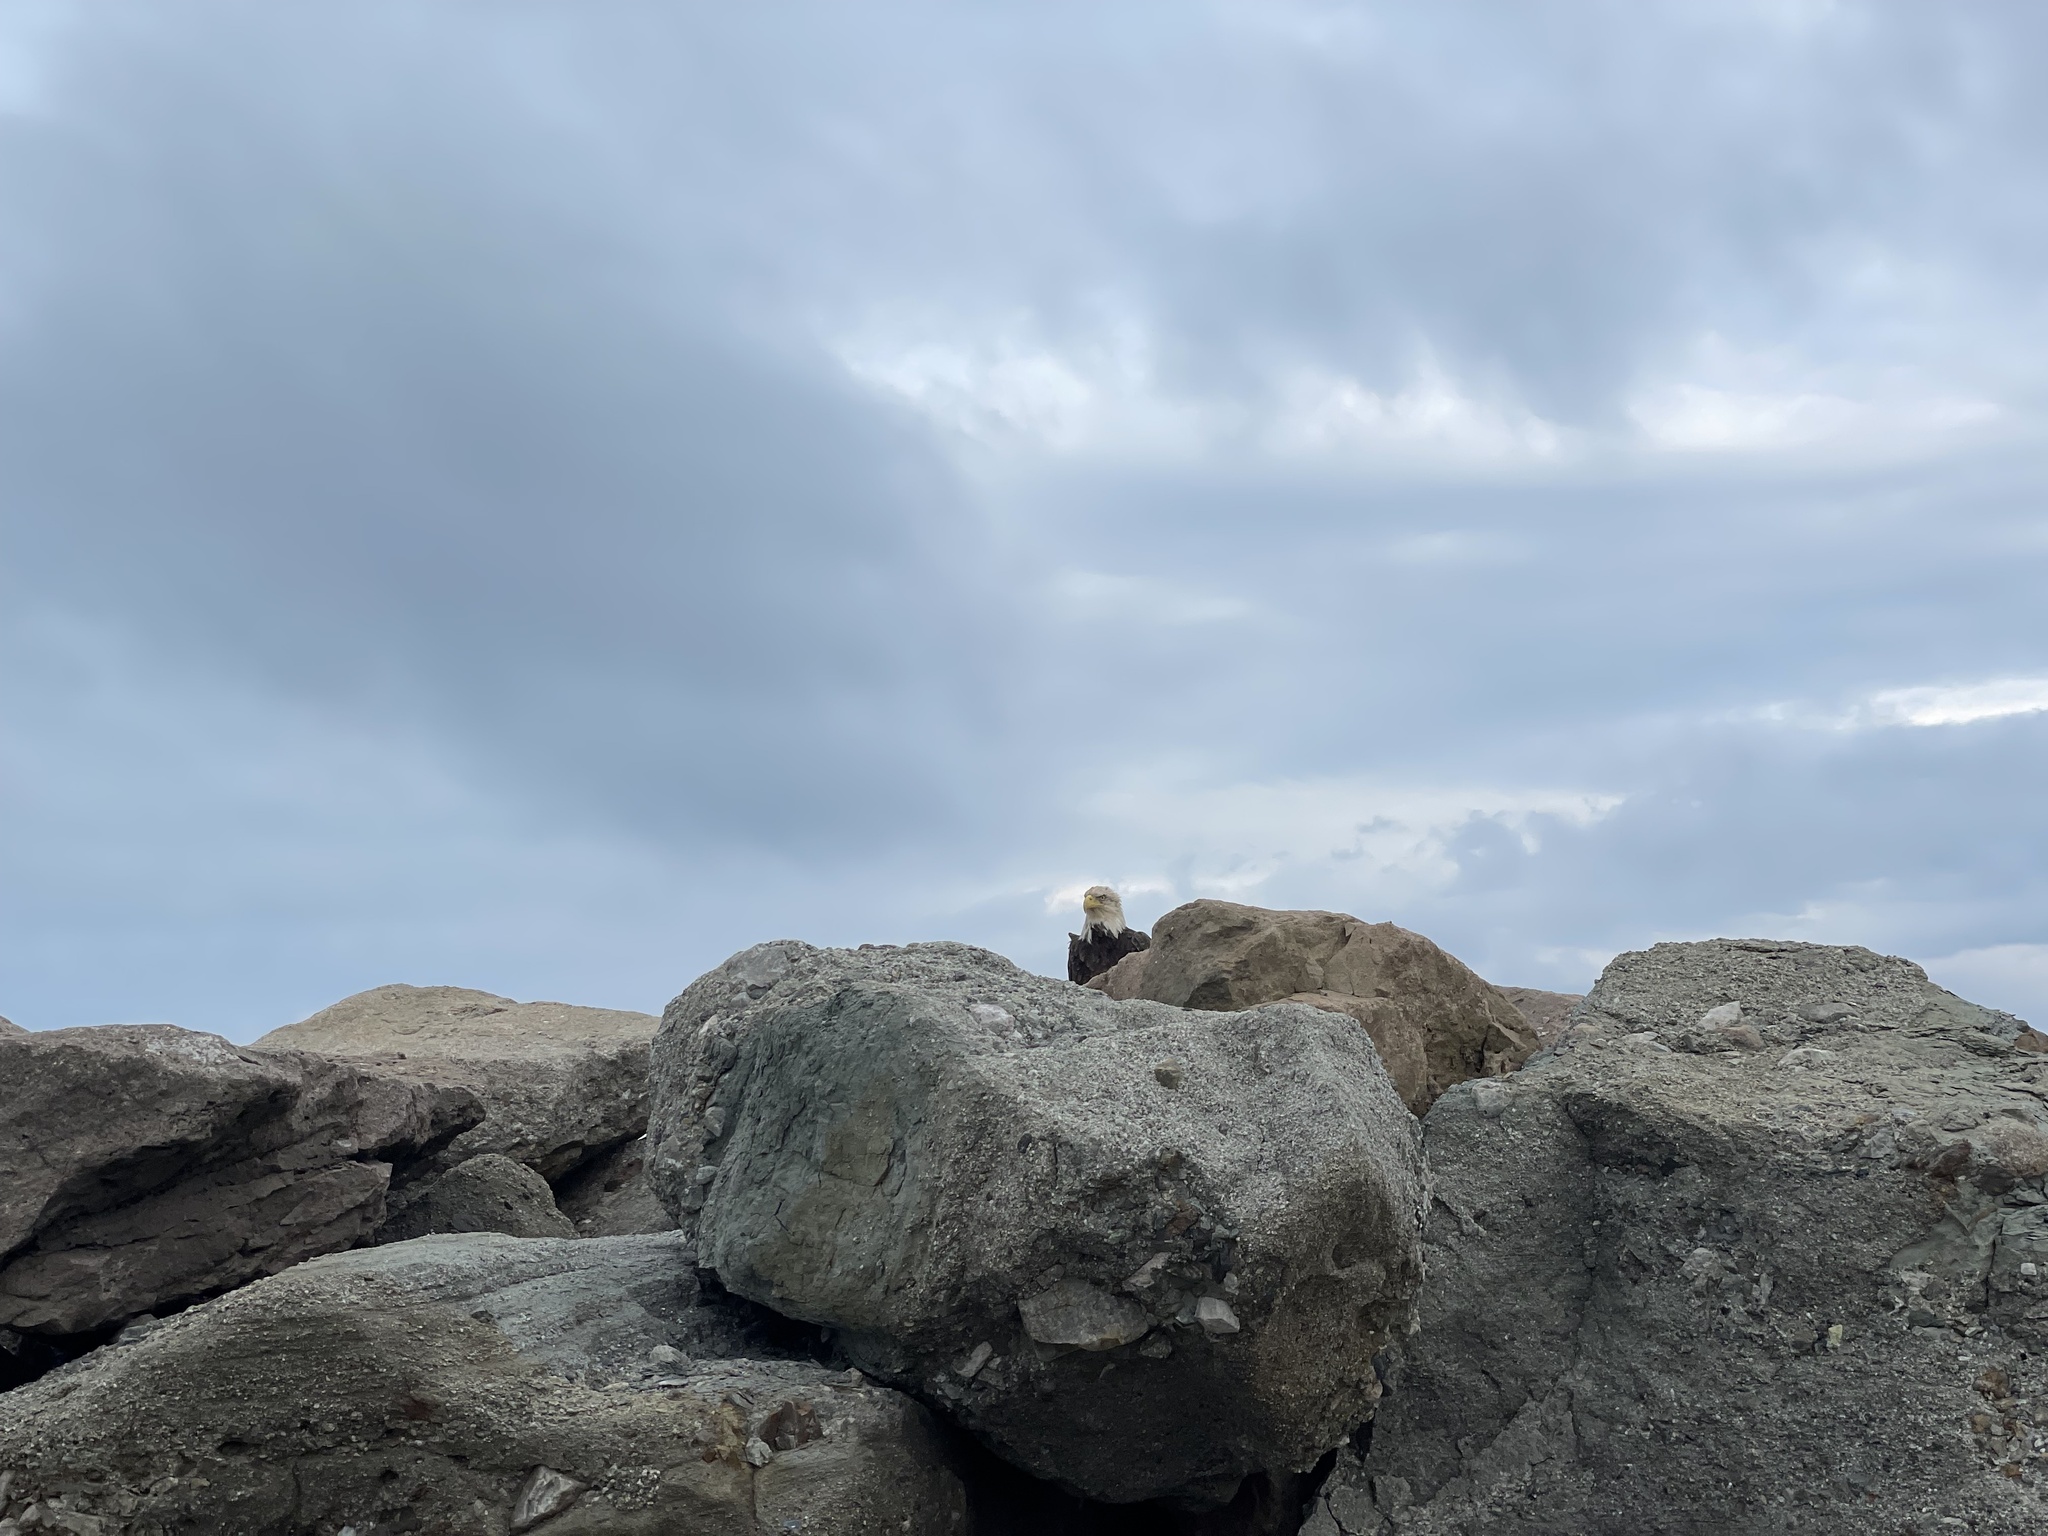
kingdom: Animalia
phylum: Chordata
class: Aves
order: Accipitriformes
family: Accipitridae
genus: Haliaeetus
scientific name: Haliaeetus leucocephalus
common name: Bald eagle
